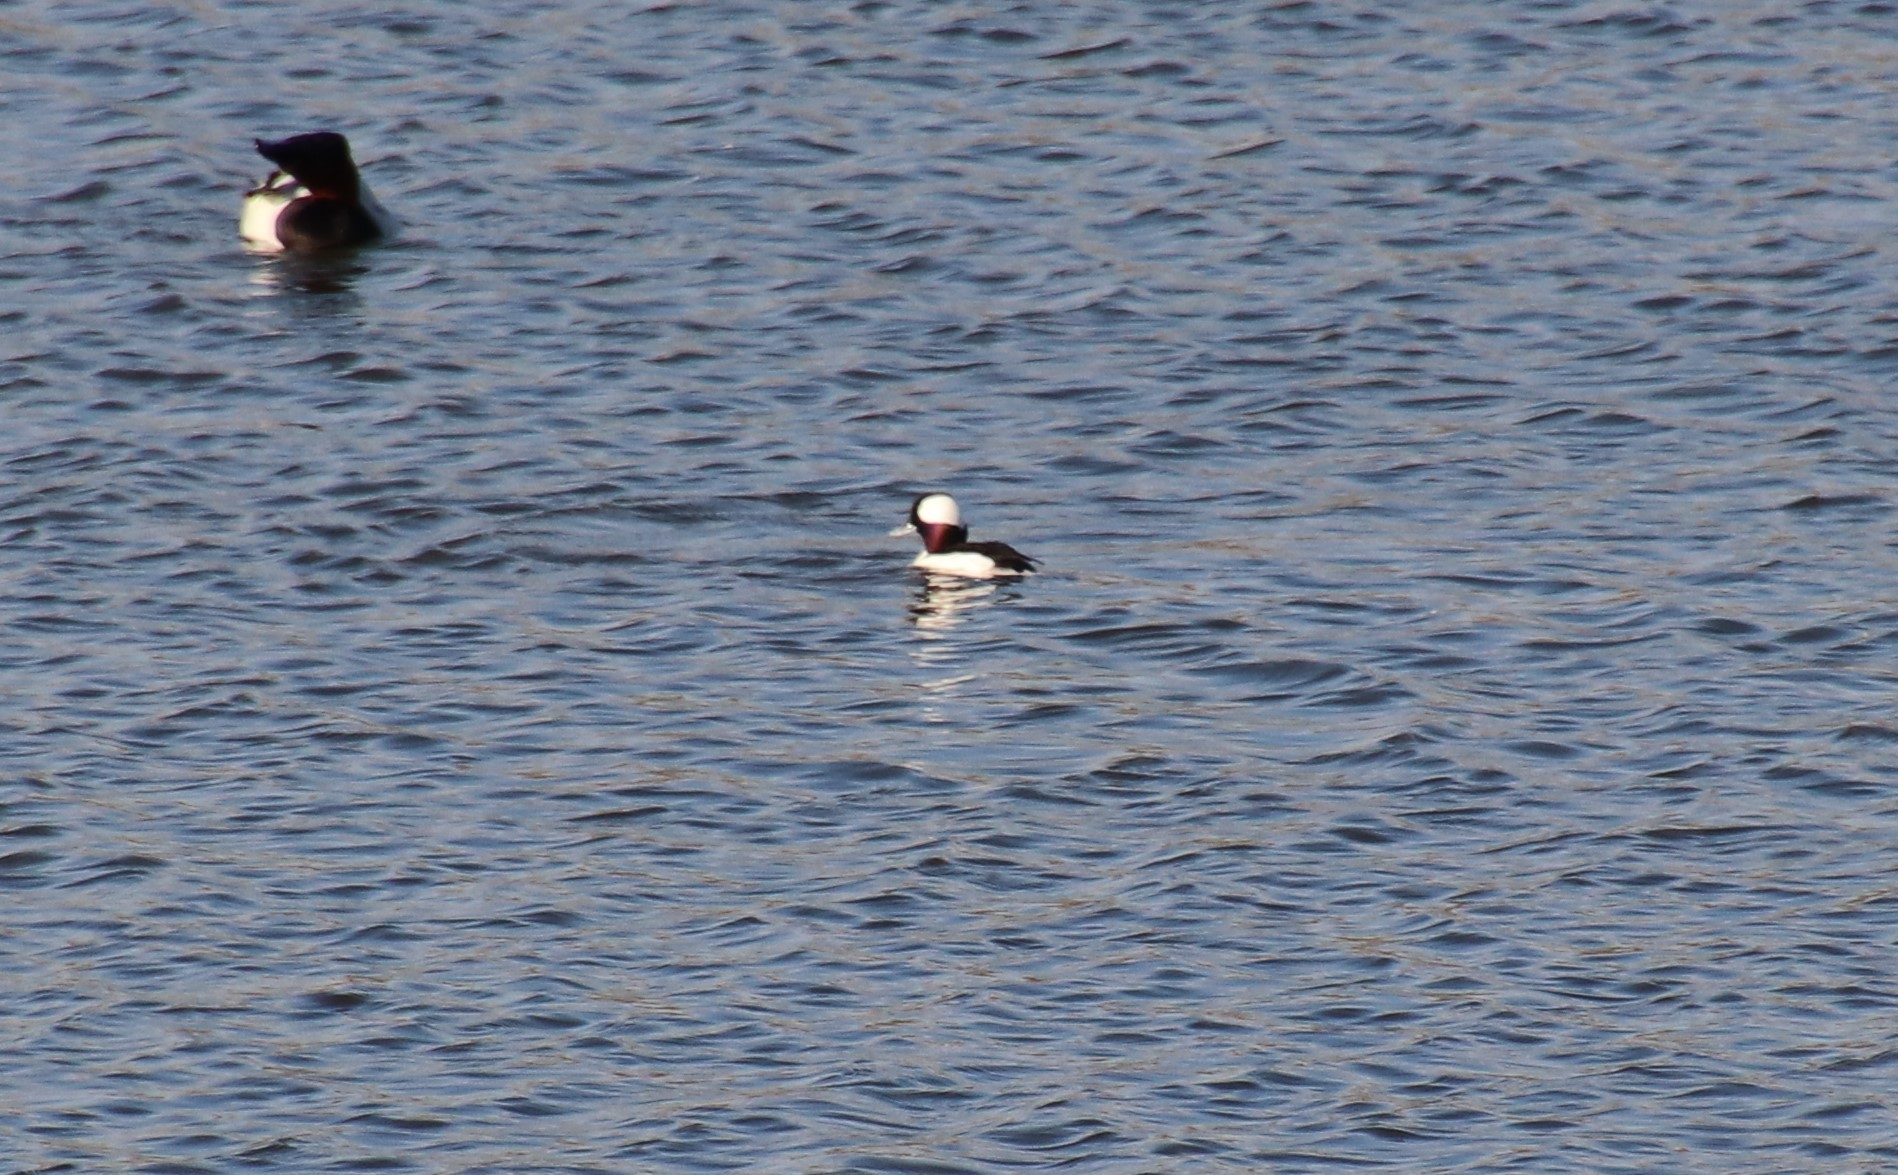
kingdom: Animalia
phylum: Chordata
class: Aves
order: Anseriformes
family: Anatidae
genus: Bucephala
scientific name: Bucephala albeola
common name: Bufflehead
